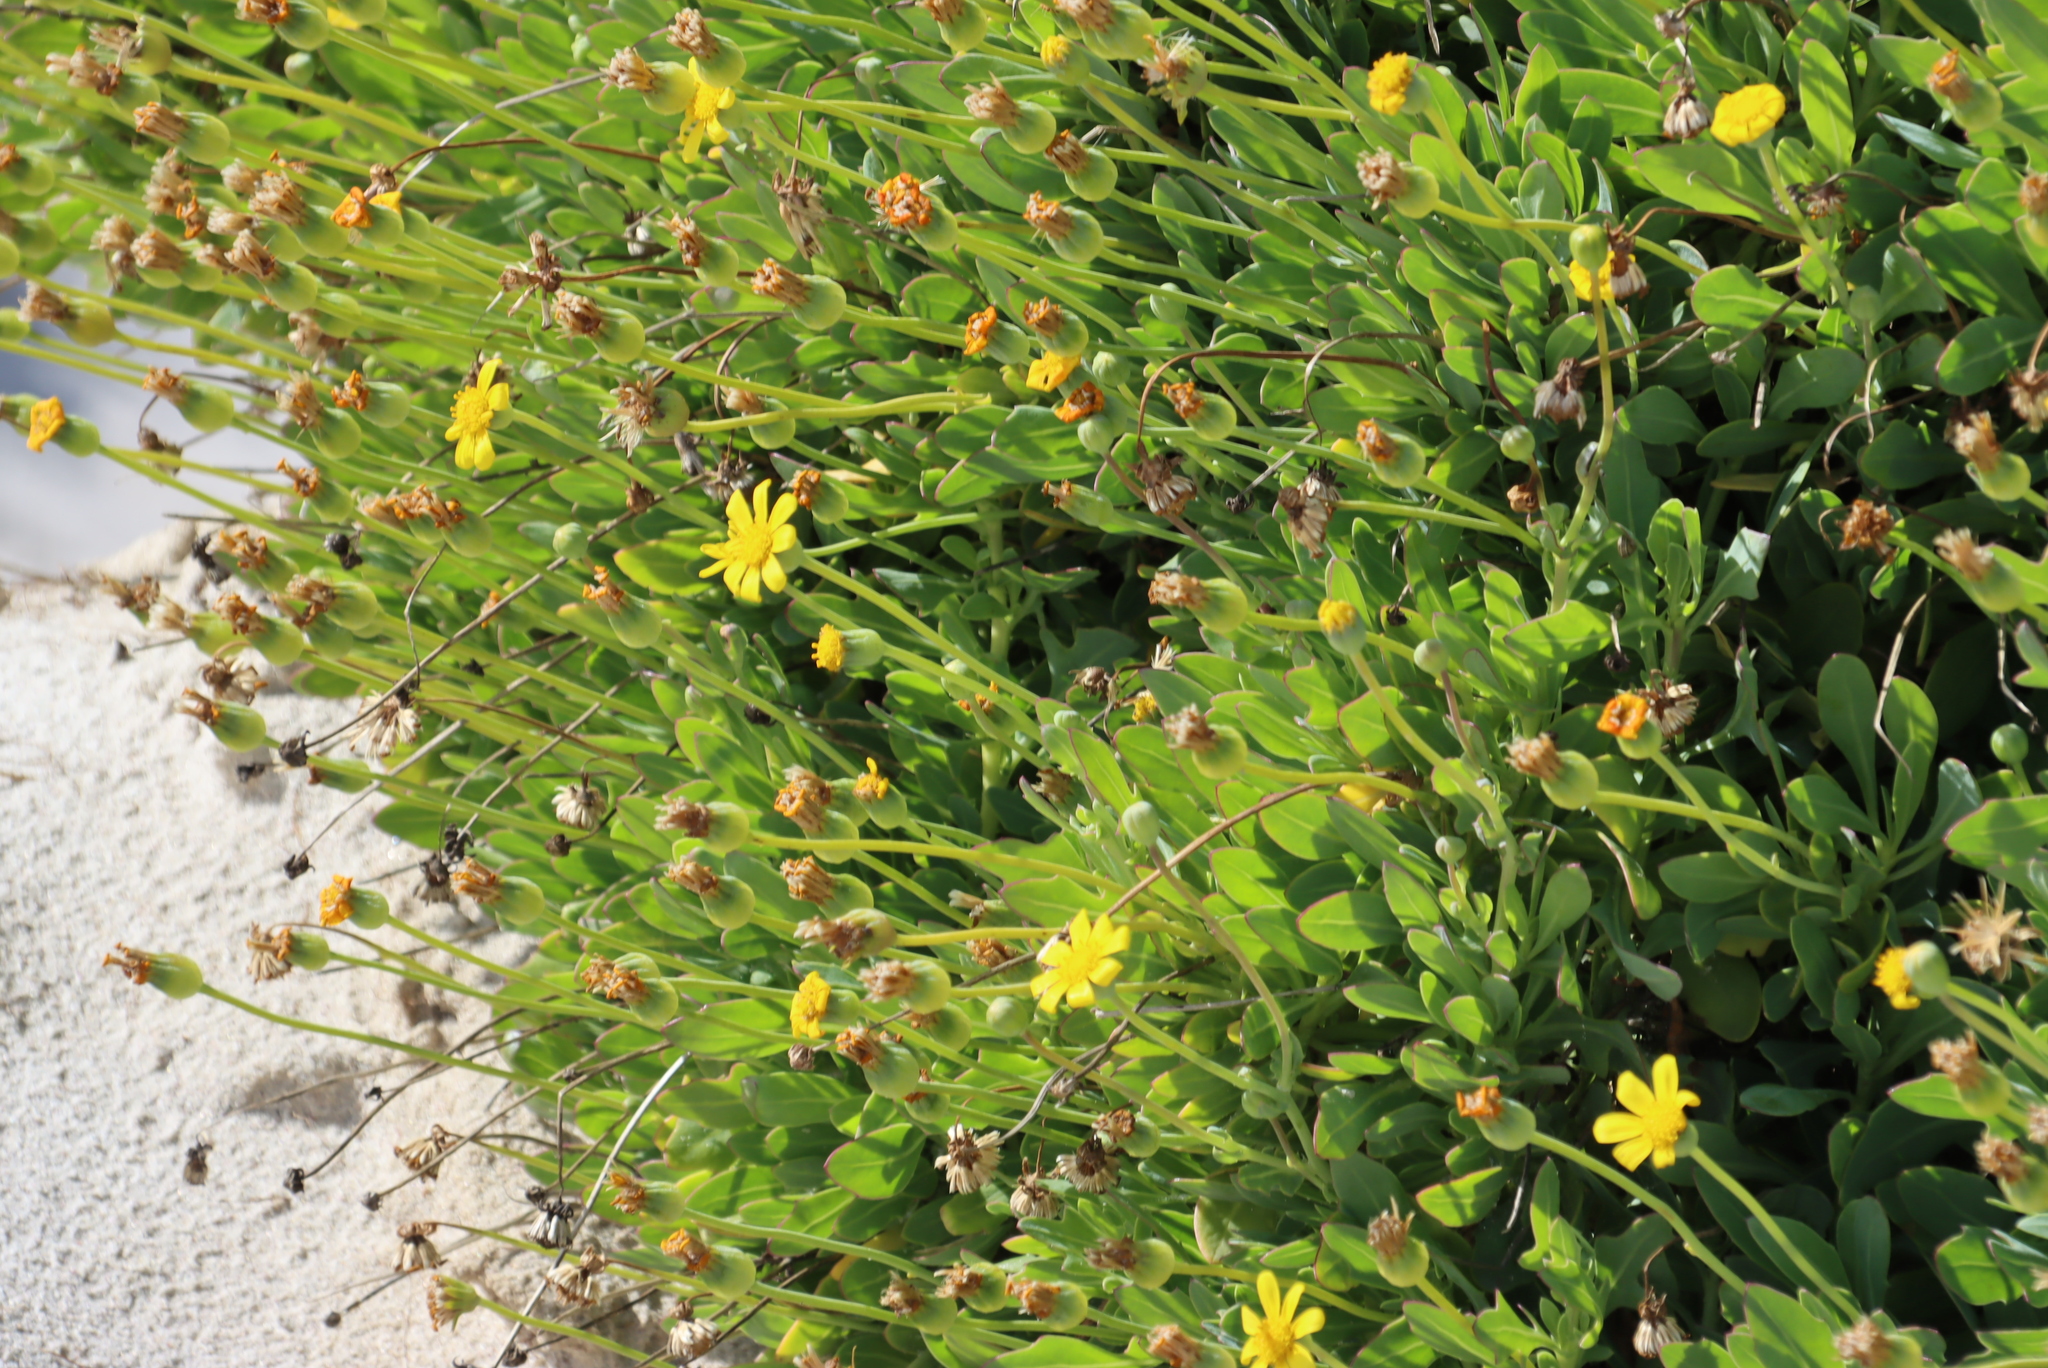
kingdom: Plantae
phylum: Tracheophyta
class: Magnoliopsida
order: Asterales
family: Asteraceae
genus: Othonna
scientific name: Othonna coronopifolia
